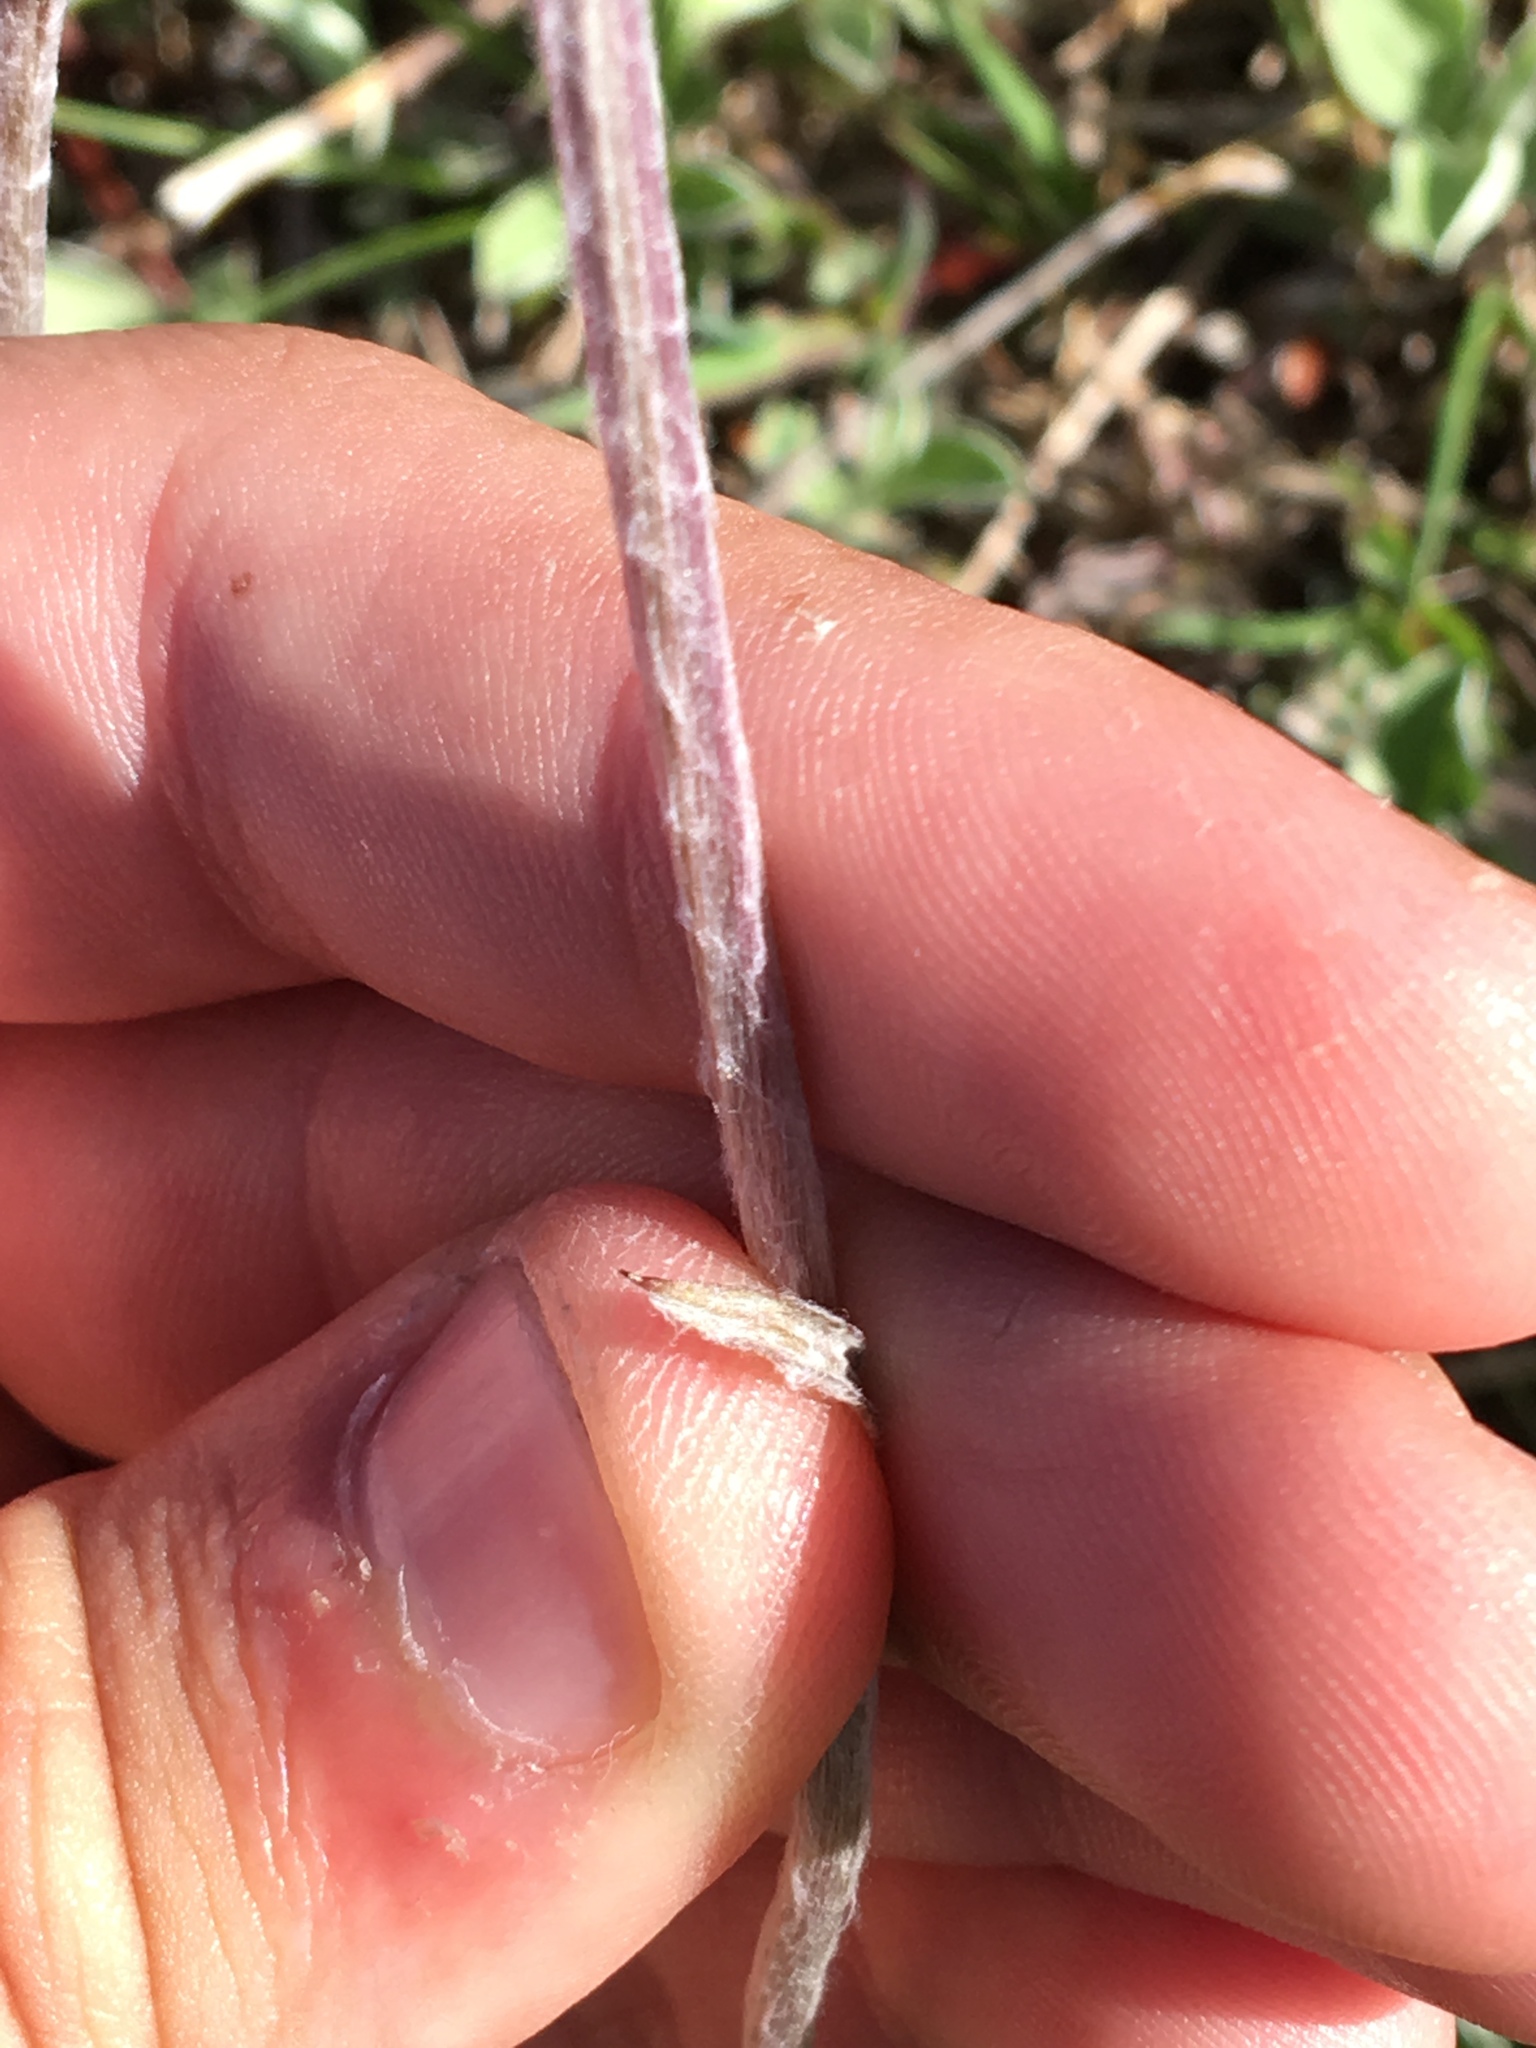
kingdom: Plantae
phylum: Tracheophyta
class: Magnoliopsida
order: Asterales
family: Asteraceae
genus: Antennaria
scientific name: Antennaria howellii
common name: Howell's pussytoes
